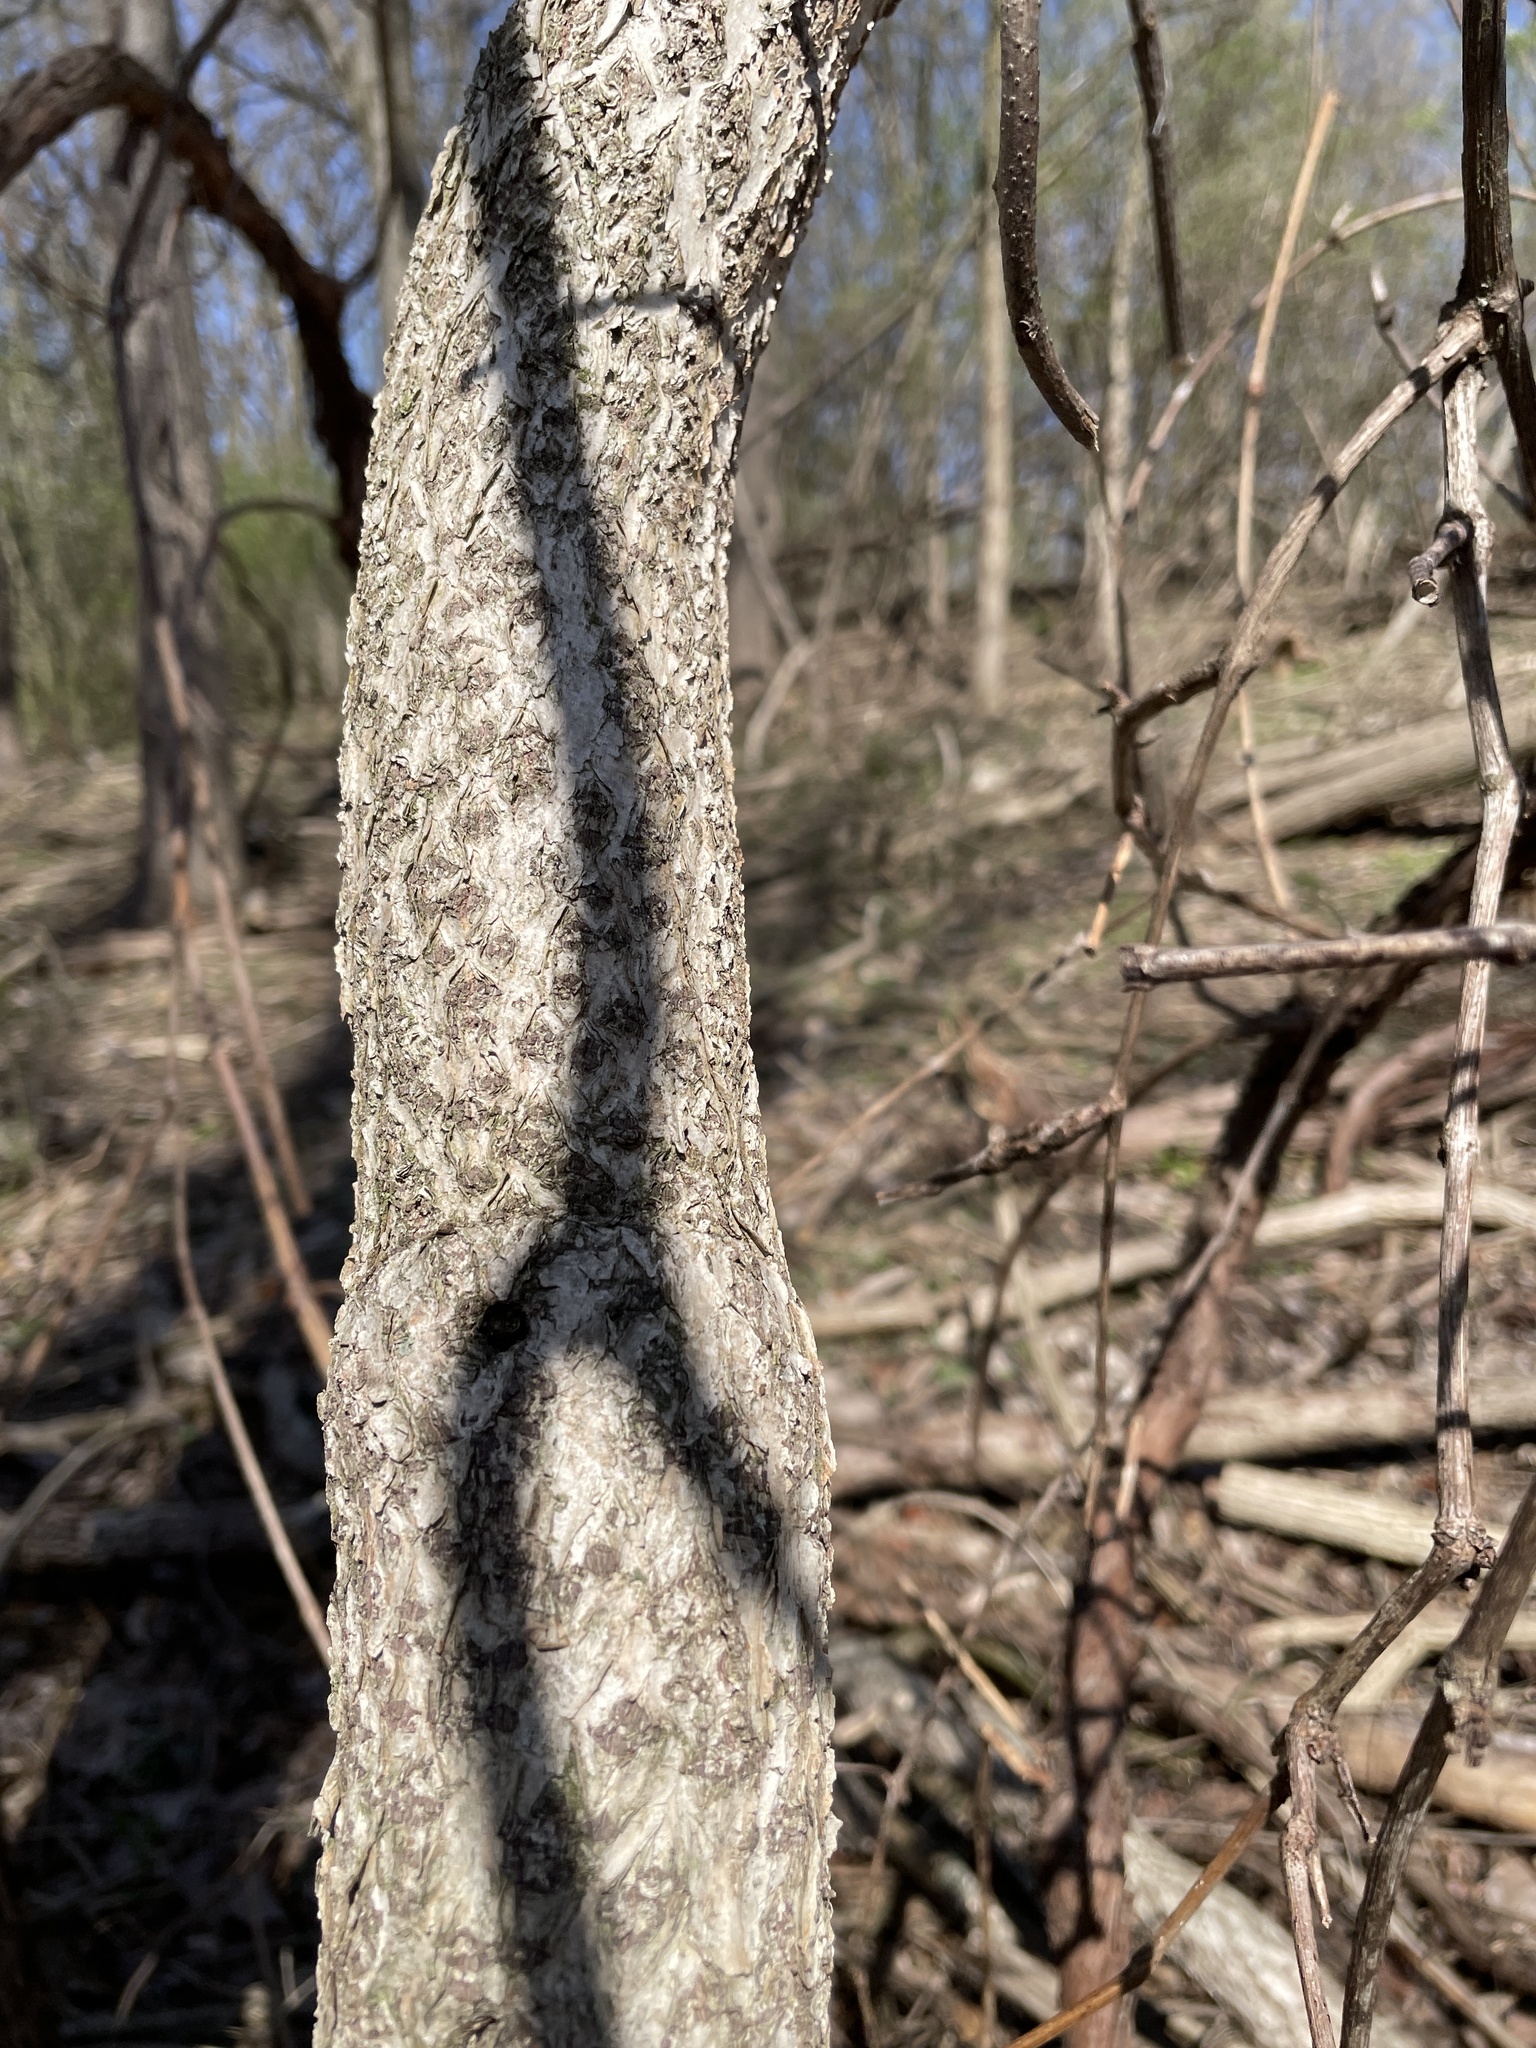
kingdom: Plantae
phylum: Tracheophyta
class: Magnoliopsida
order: Celastrales
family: Celastraceae
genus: Celastrus
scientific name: Celastrus orbiculatus
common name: Oriental bittersweet
